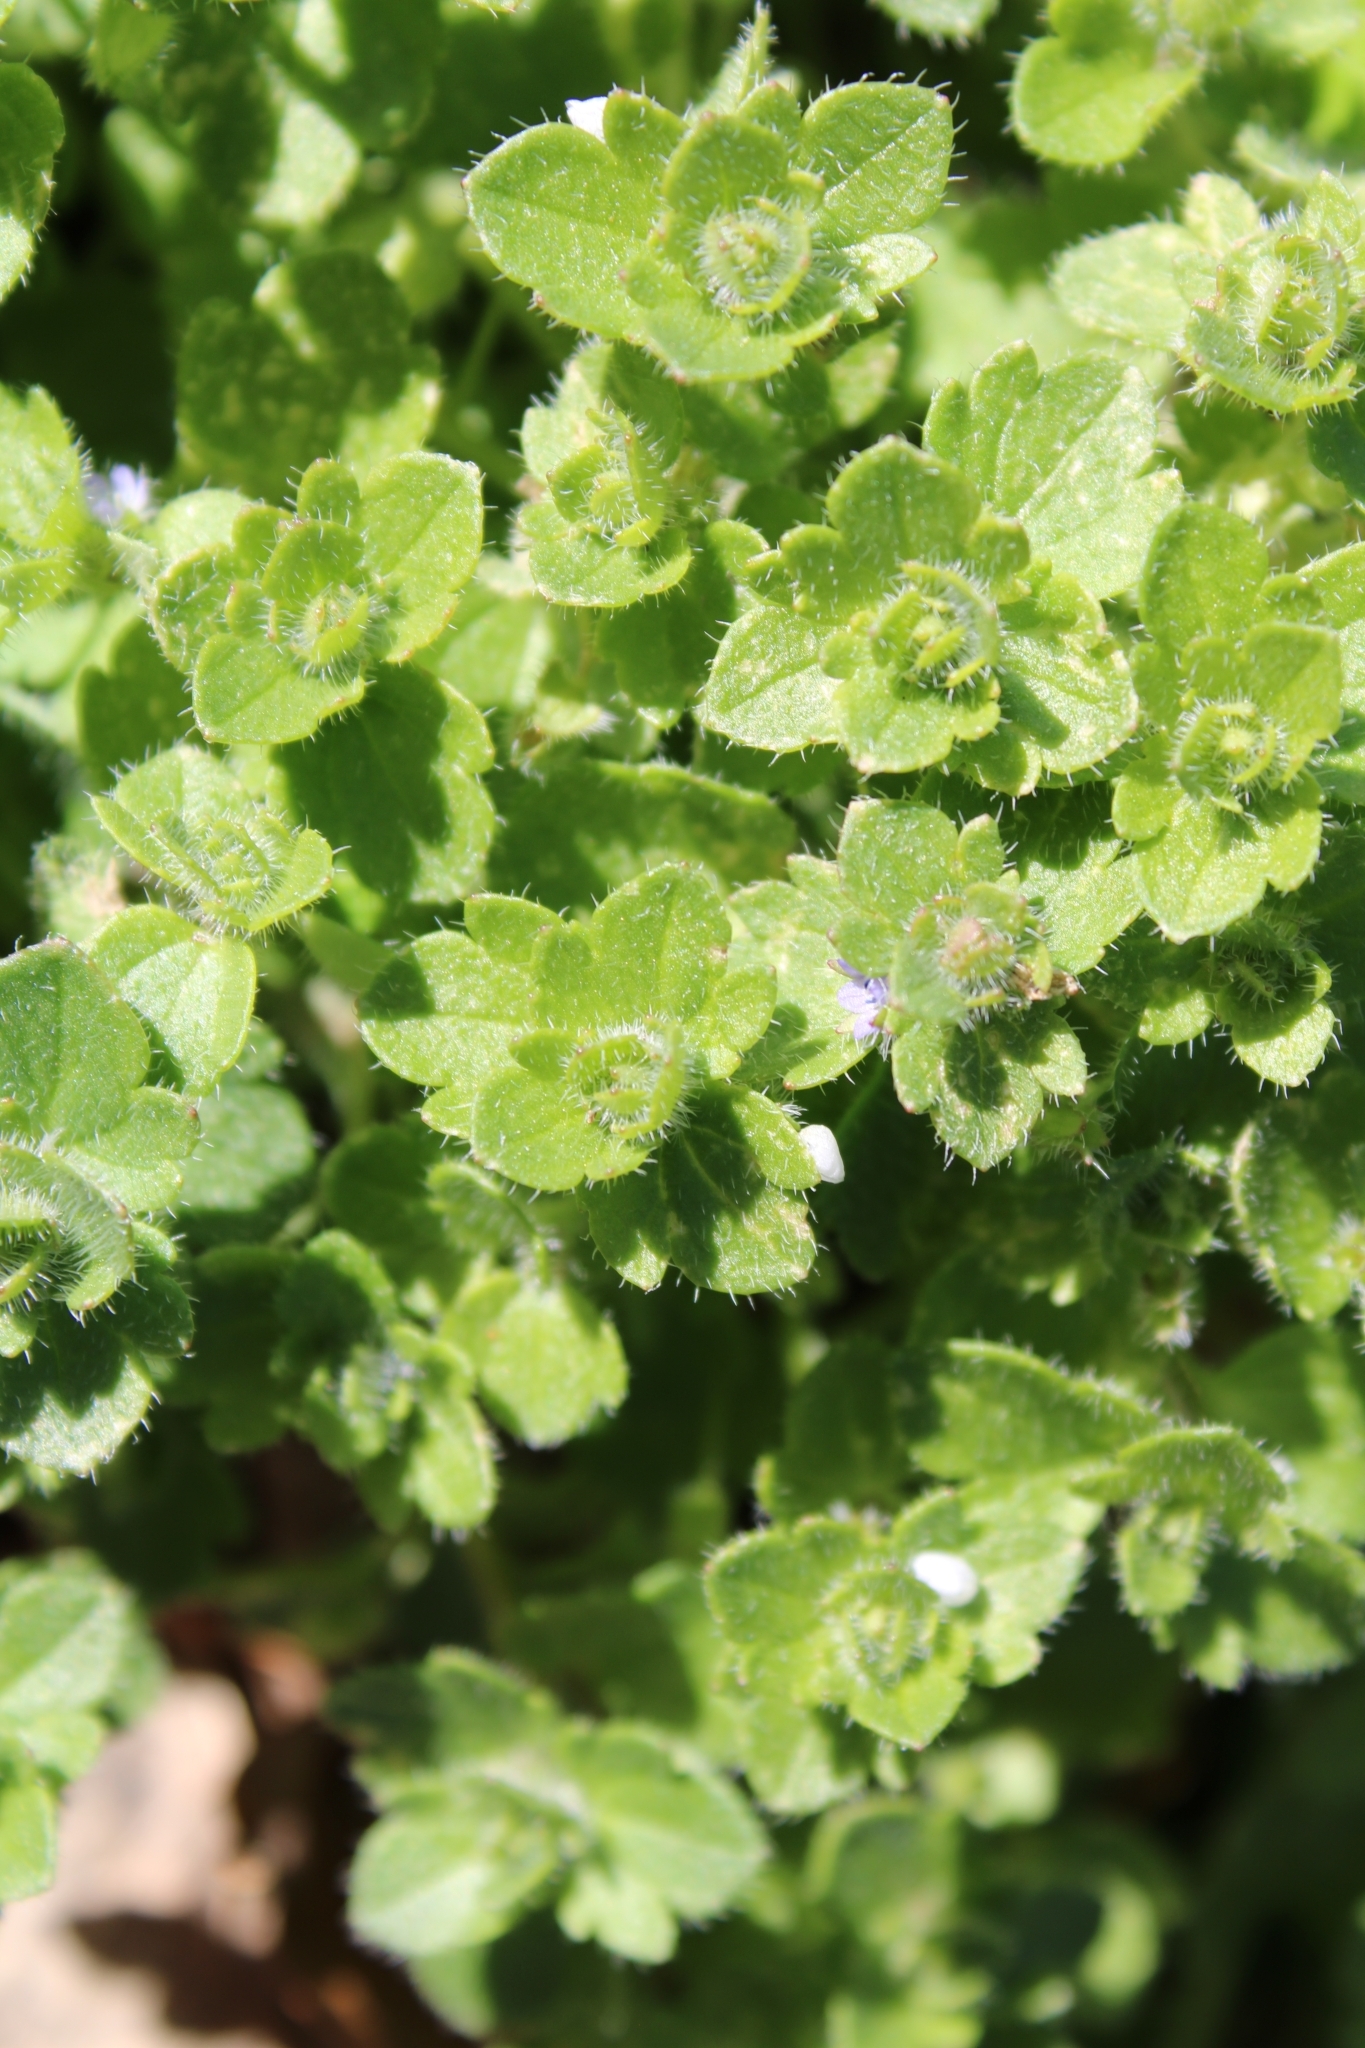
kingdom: Plantae
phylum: Tracheophyta
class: Magnoliopsida
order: Lamiales
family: Plantaginaceae
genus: Veronica
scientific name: Veronica hederifolia
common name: Ivy-leaved speedwell
